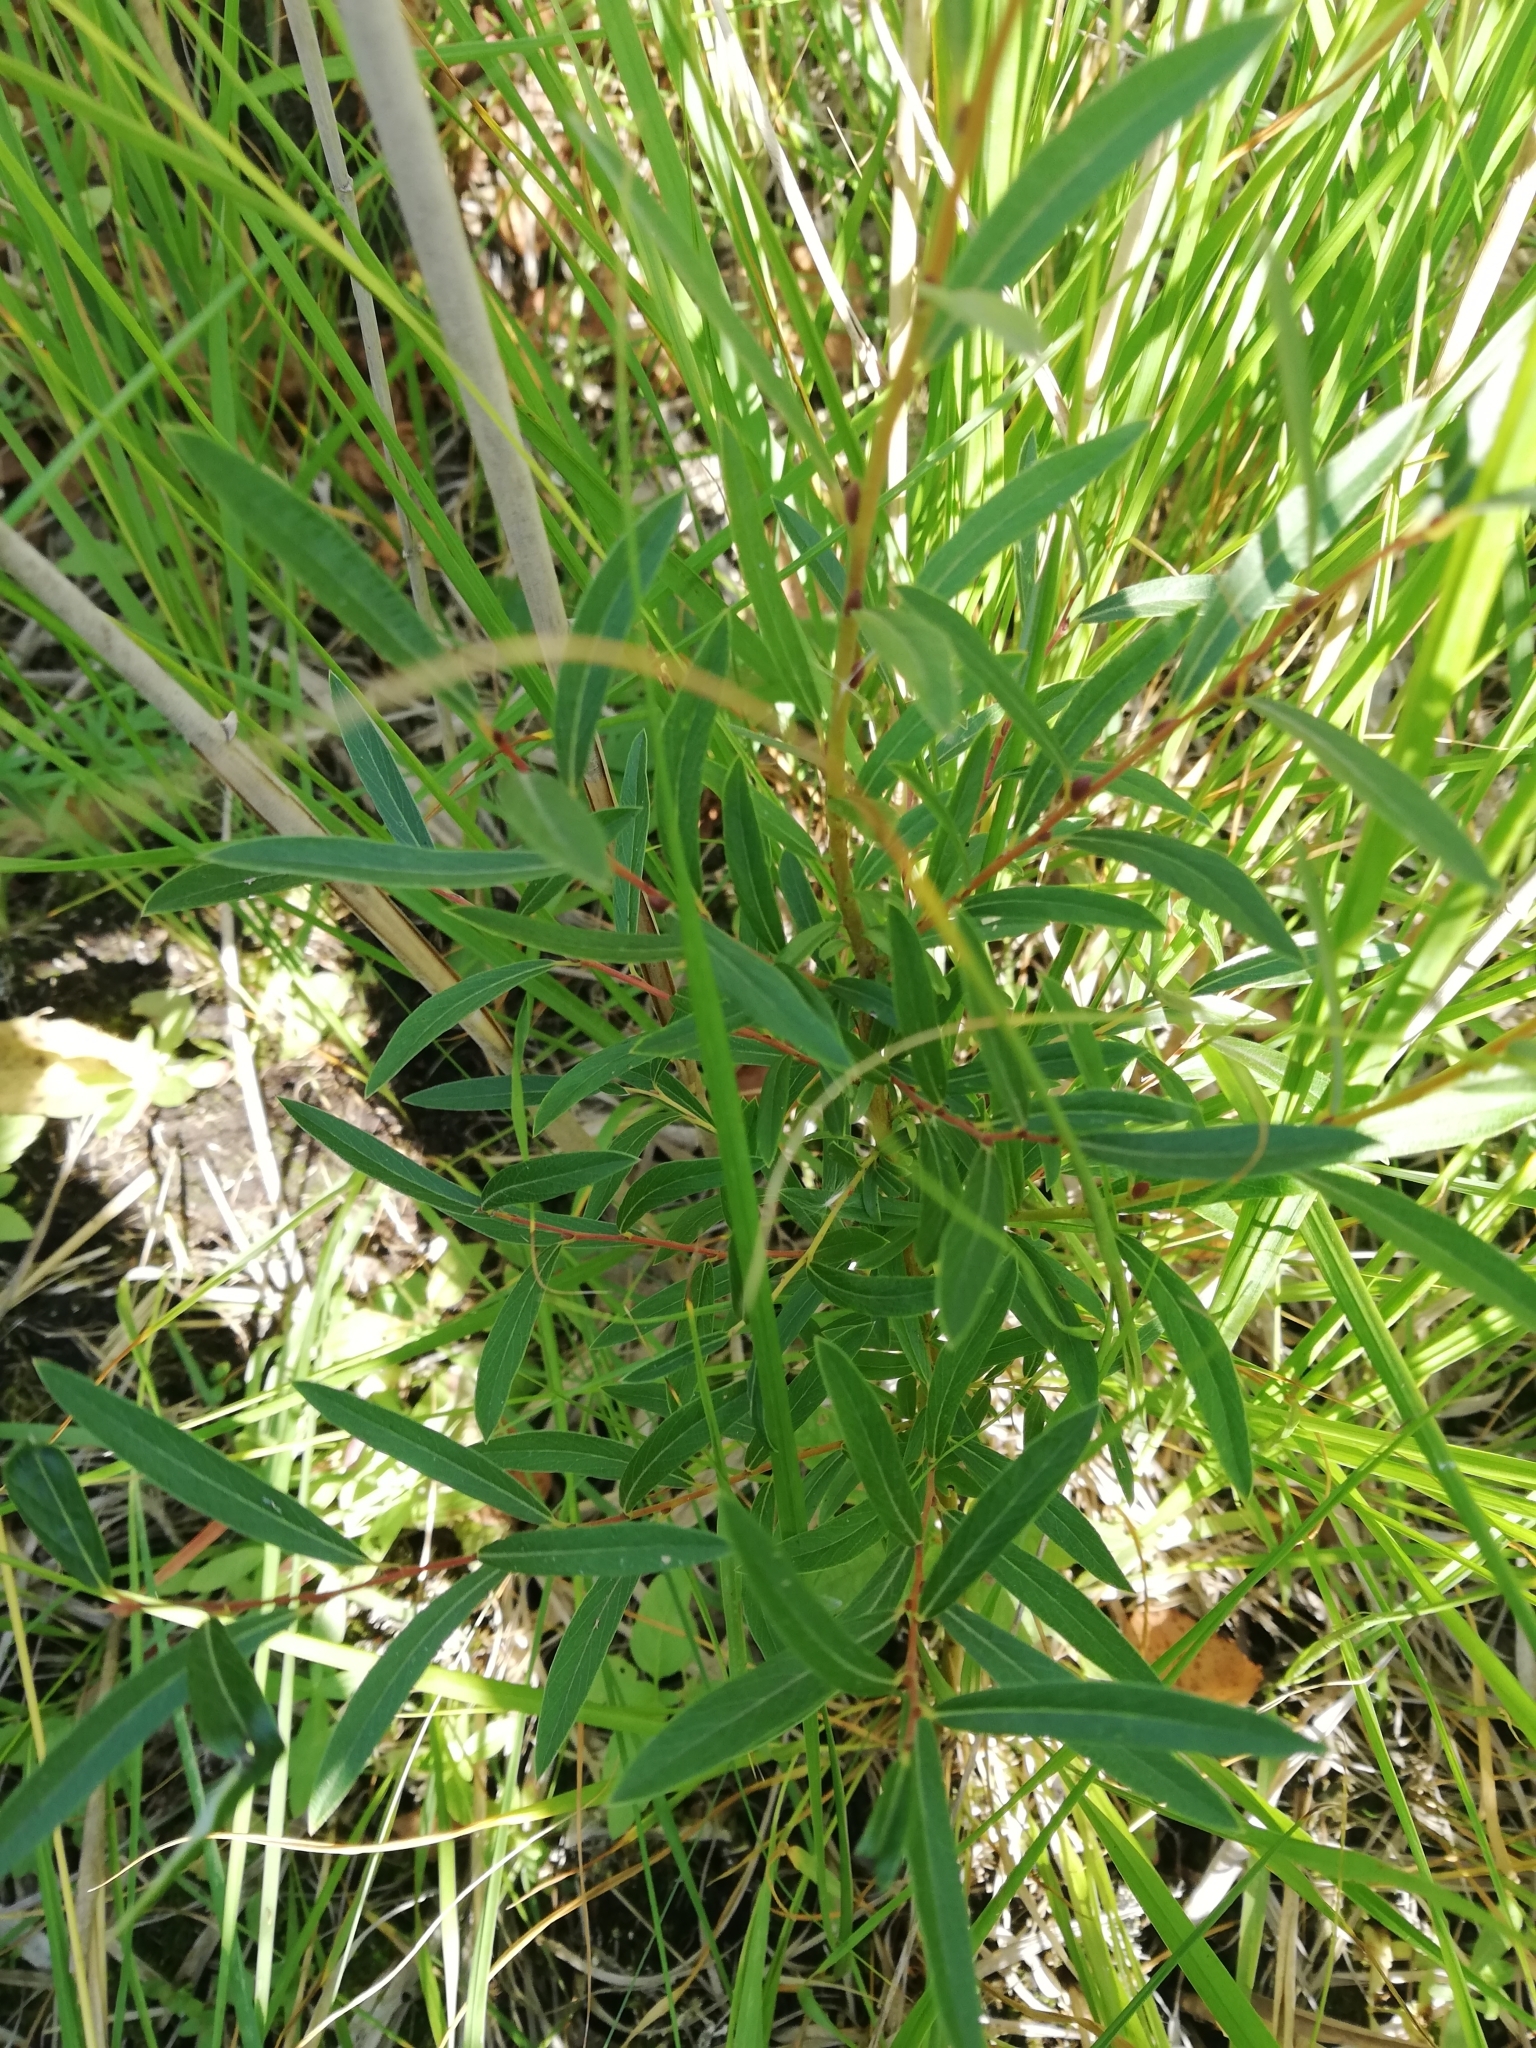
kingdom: Plantae
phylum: Tracheophyta
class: Magnoliopsida
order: Malpighiales
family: Salicaceae
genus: Salix
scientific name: Salix rosmarinifolia
